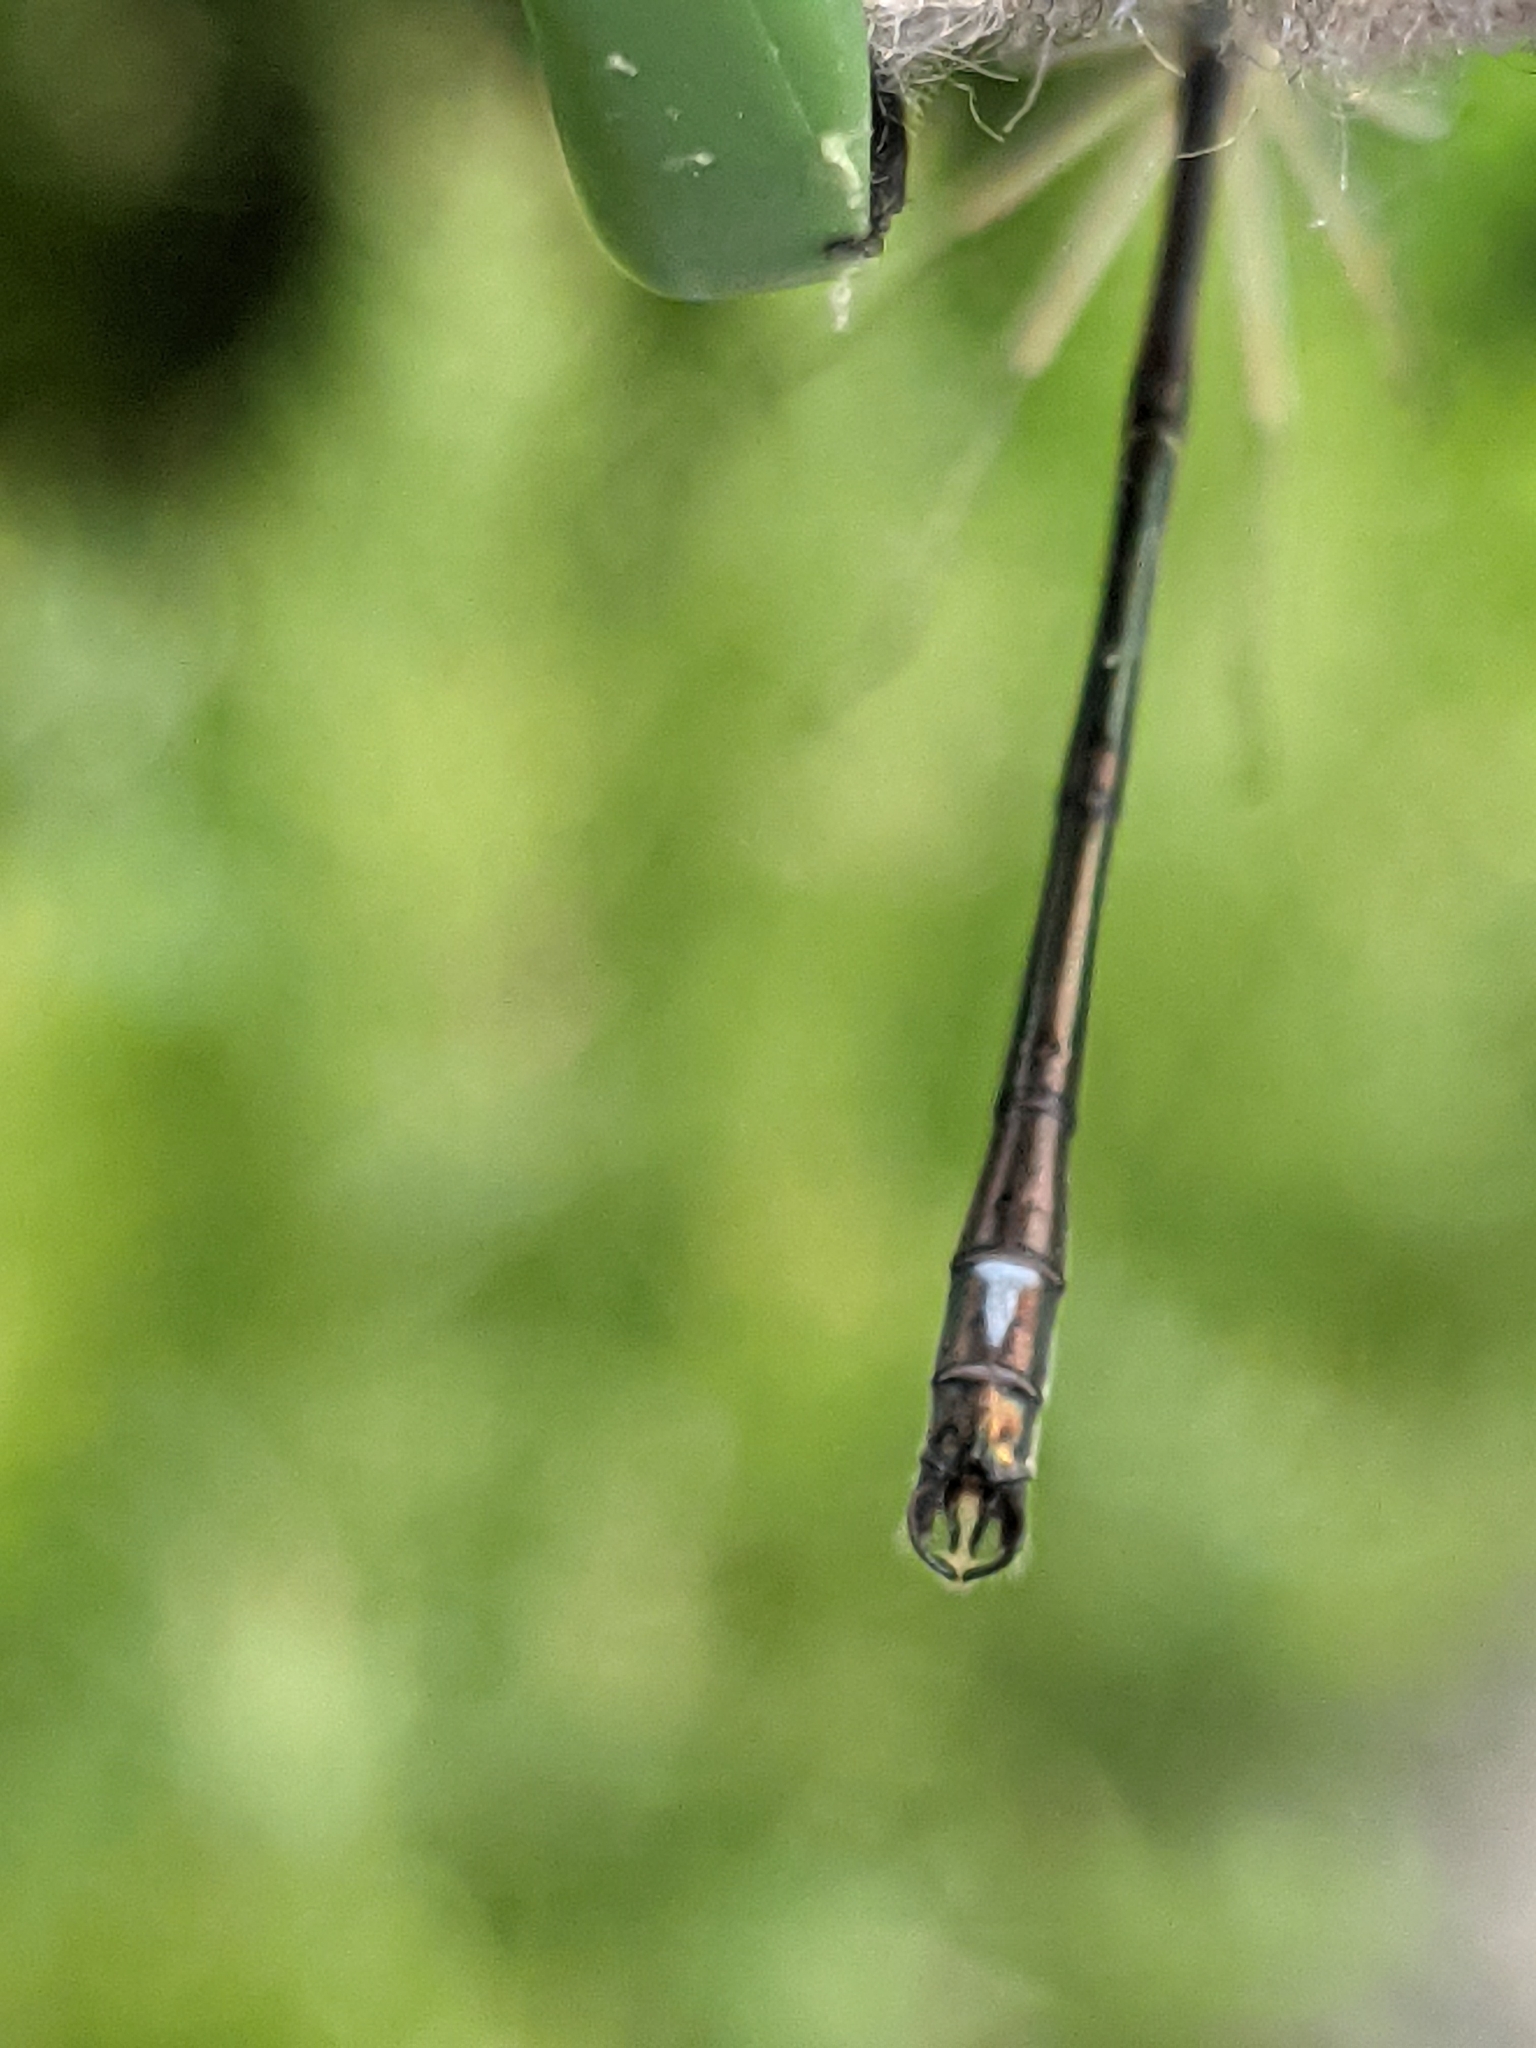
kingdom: Animalia
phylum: Arthropoda
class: Insecta
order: Odonata
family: Lestidae
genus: Lestes
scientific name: Lestes rectangularis
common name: Slender spreadwing
